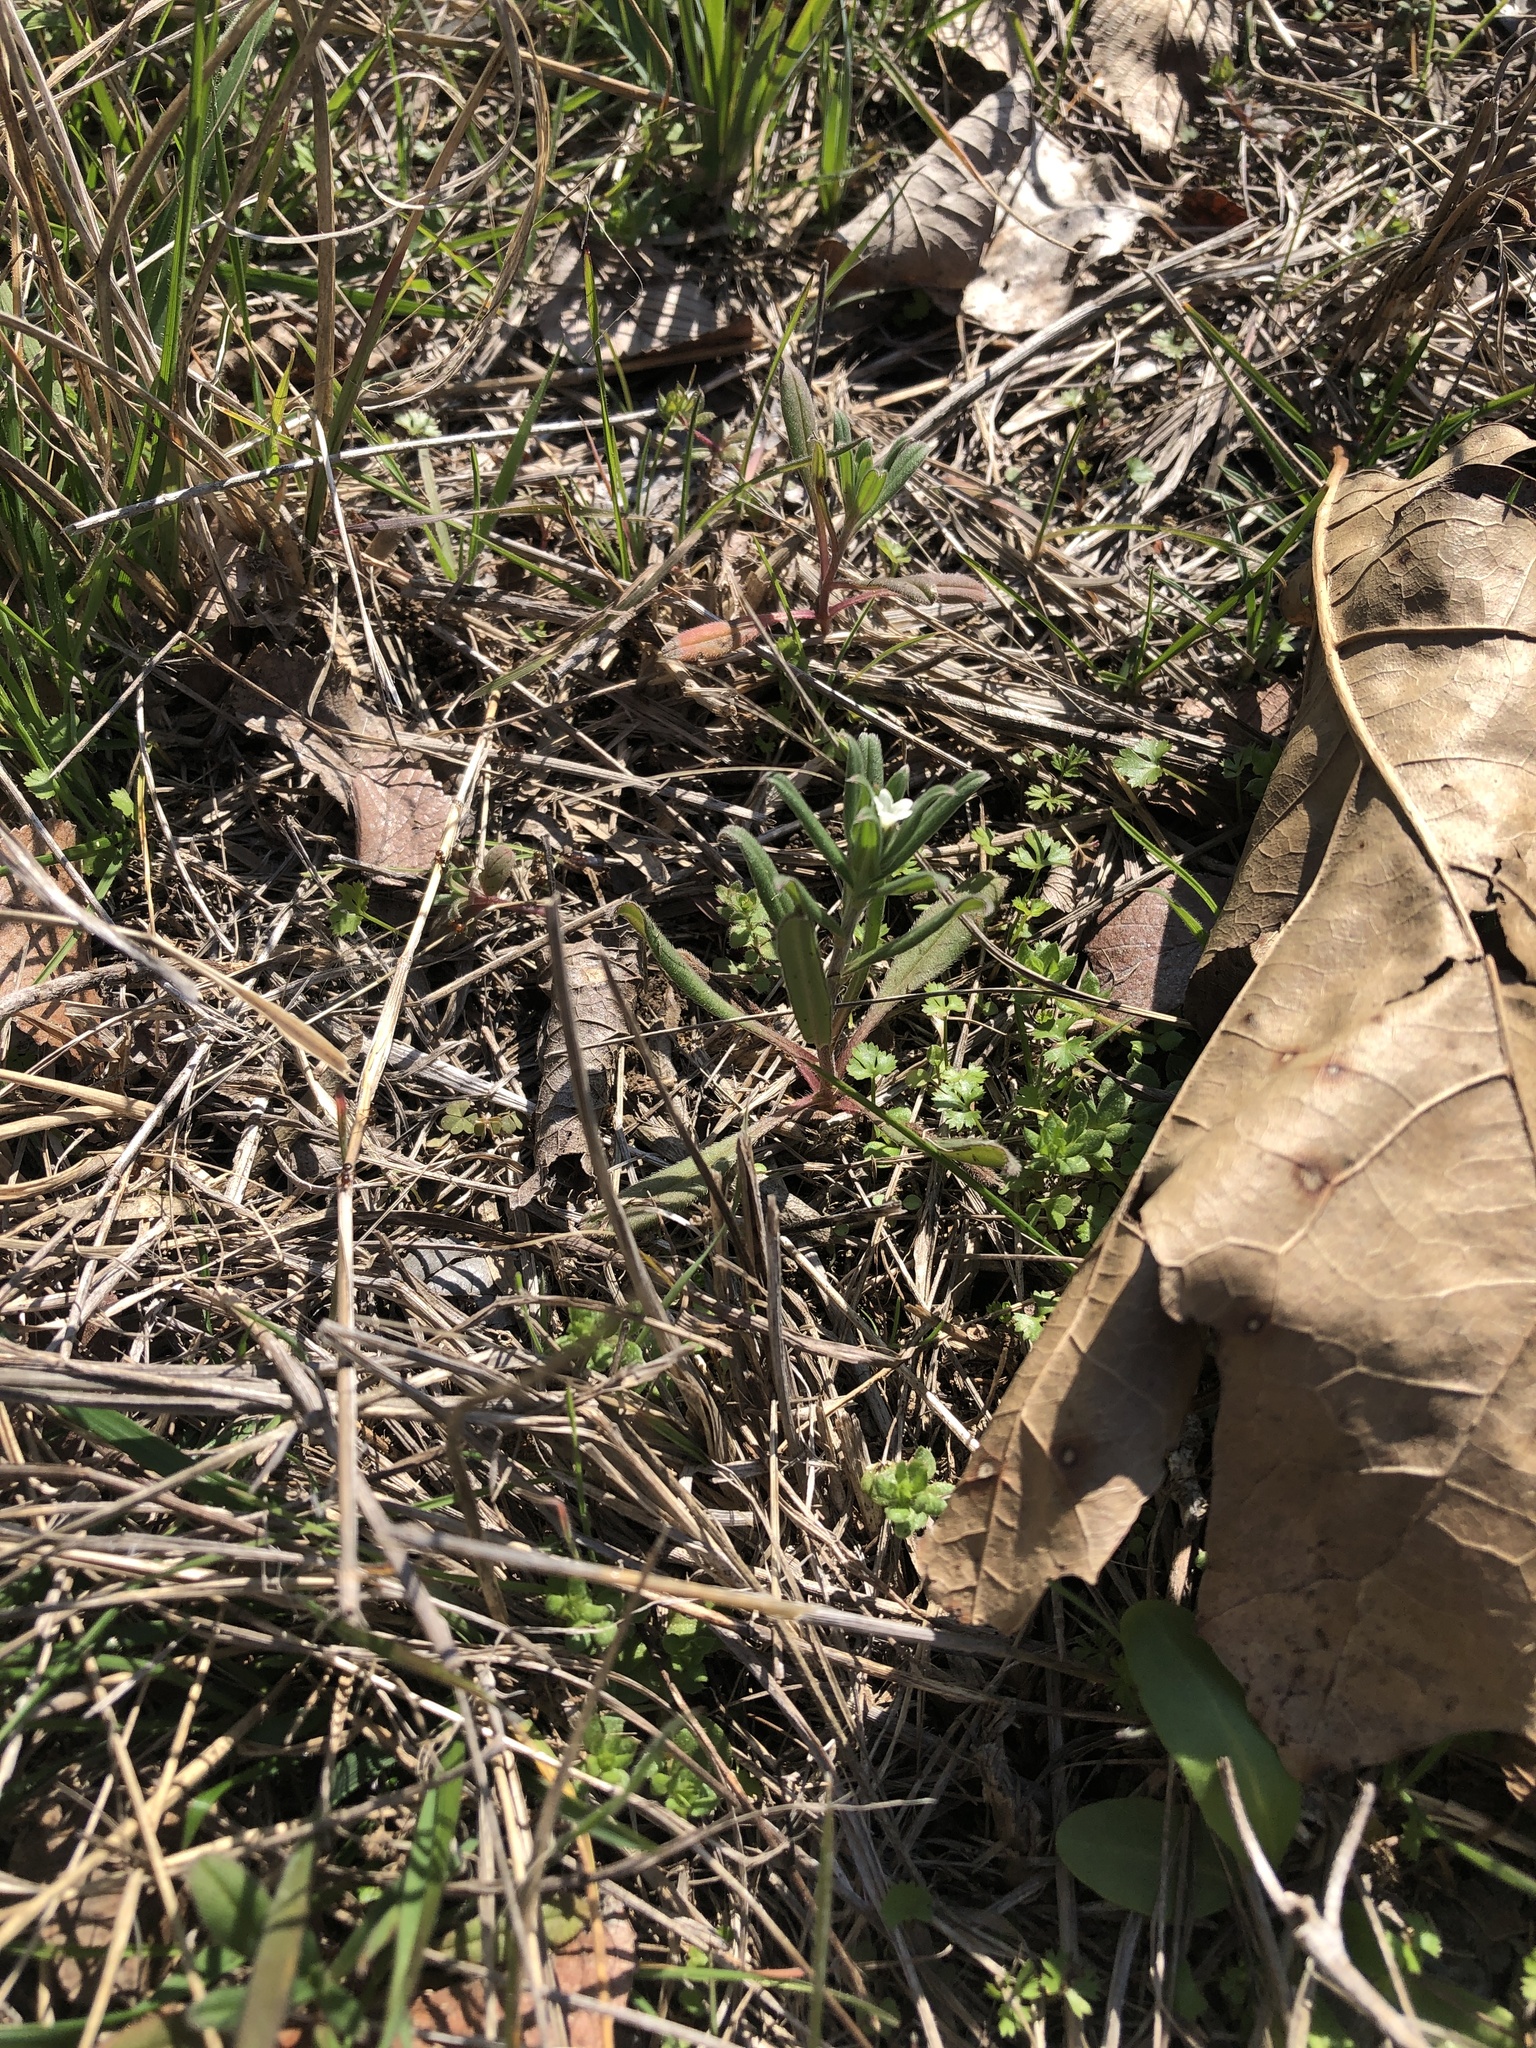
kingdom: Plantae
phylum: Tracheophyta
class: Magnoliopsida
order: Boraginales
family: Boraginaceae
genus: Buglossoides
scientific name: Buglossoides arvensis
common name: Corn gromwell
